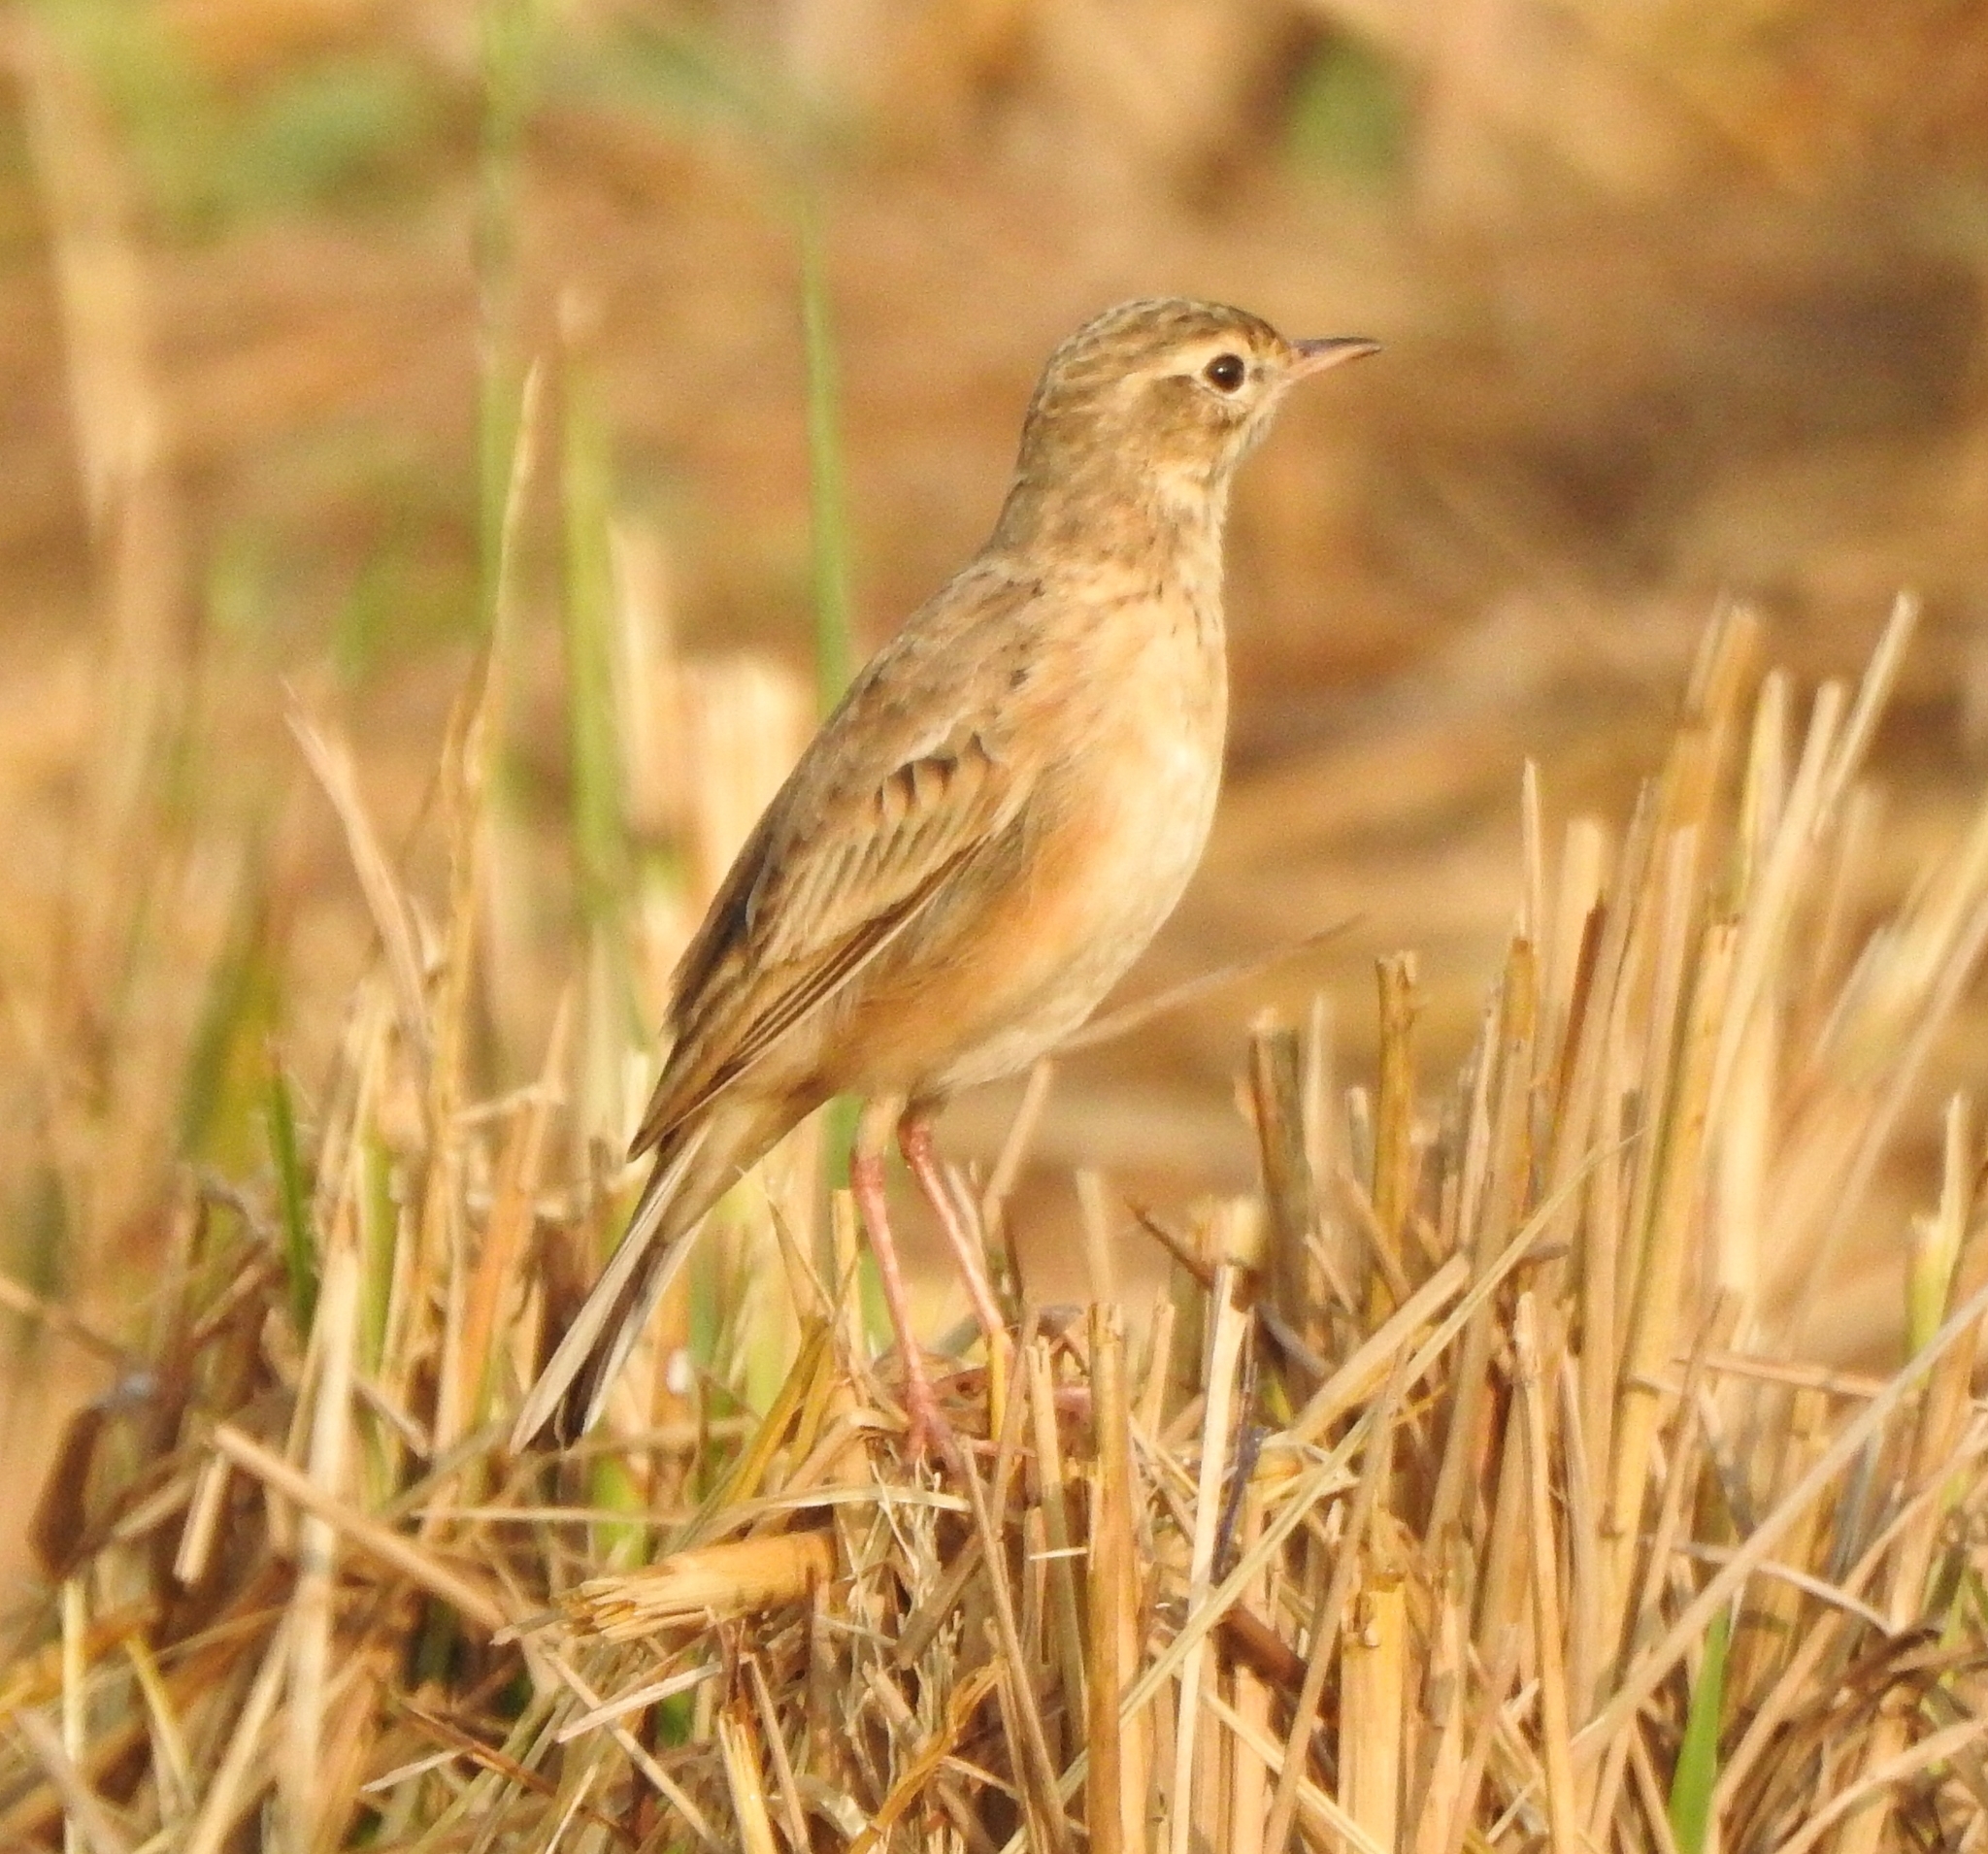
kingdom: Animalia
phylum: Chordata
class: Aves
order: Passeriformes
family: Motacillidae
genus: Anthus
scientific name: Anthus rufulus
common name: Paddyfield pipit
